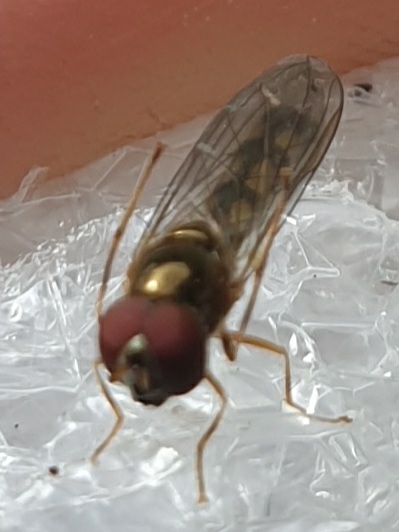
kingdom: Animalia
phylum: Arthropoda
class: Insecta
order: Diptera
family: Syrphidae
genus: Melanostoma
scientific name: Melanostoma scalare
